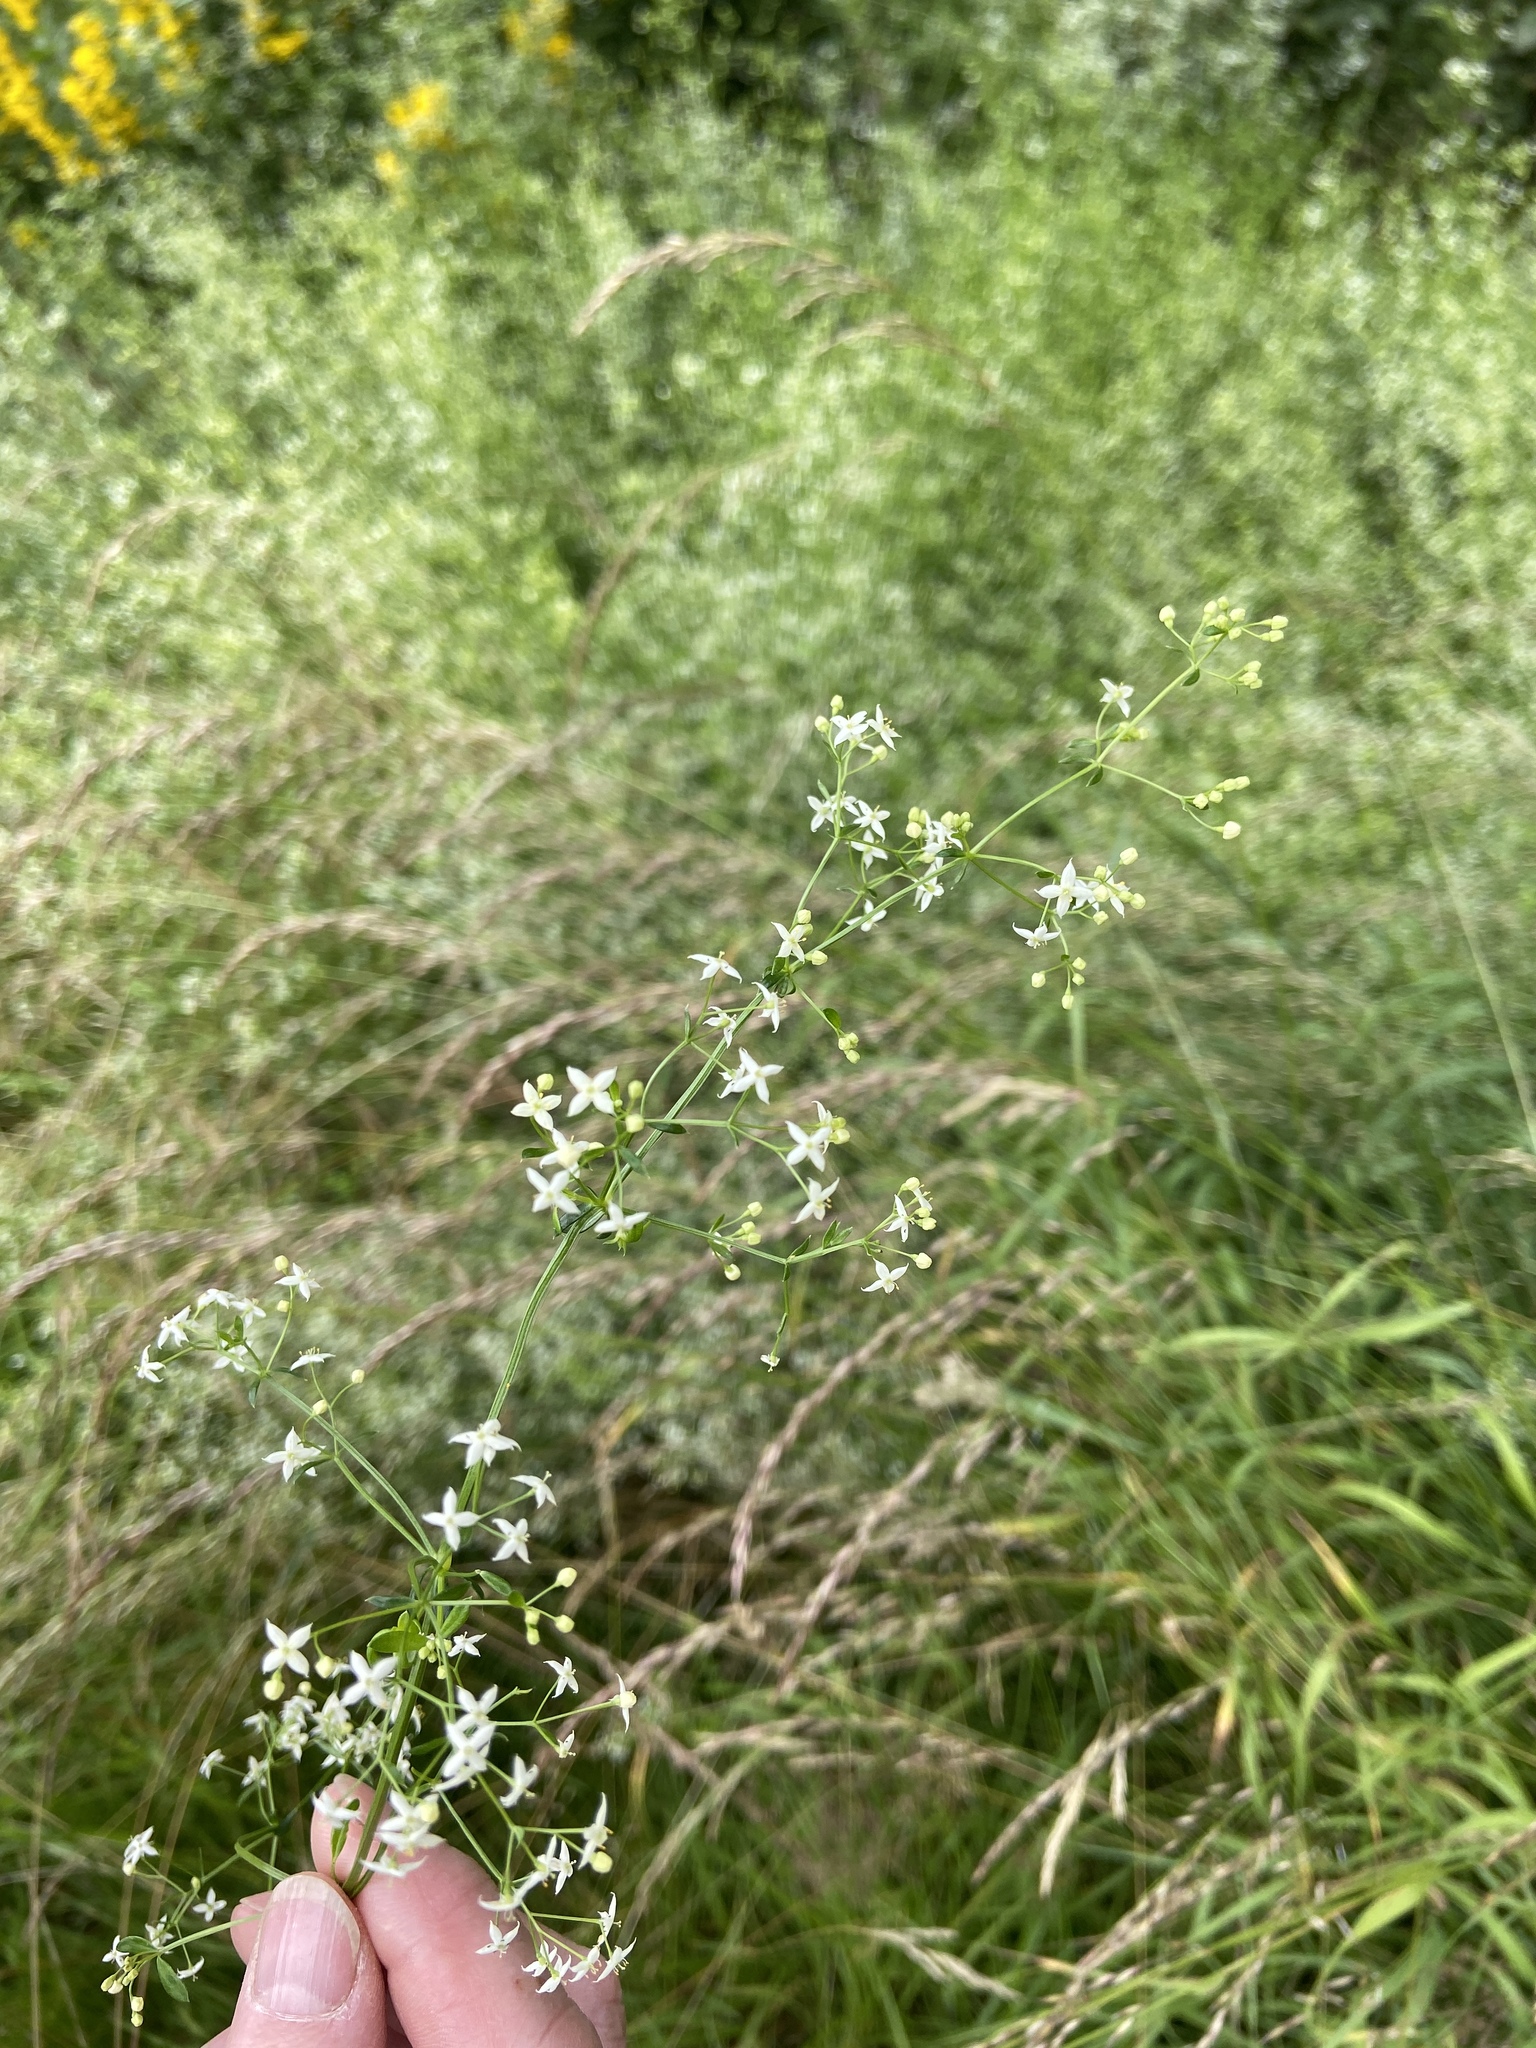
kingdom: Plantae
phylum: Tracheophyta
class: Magnoliopsida
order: Gentianales
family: Rubiaceae
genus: Galium
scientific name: Galium mollugo
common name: Hedge bedstraw
